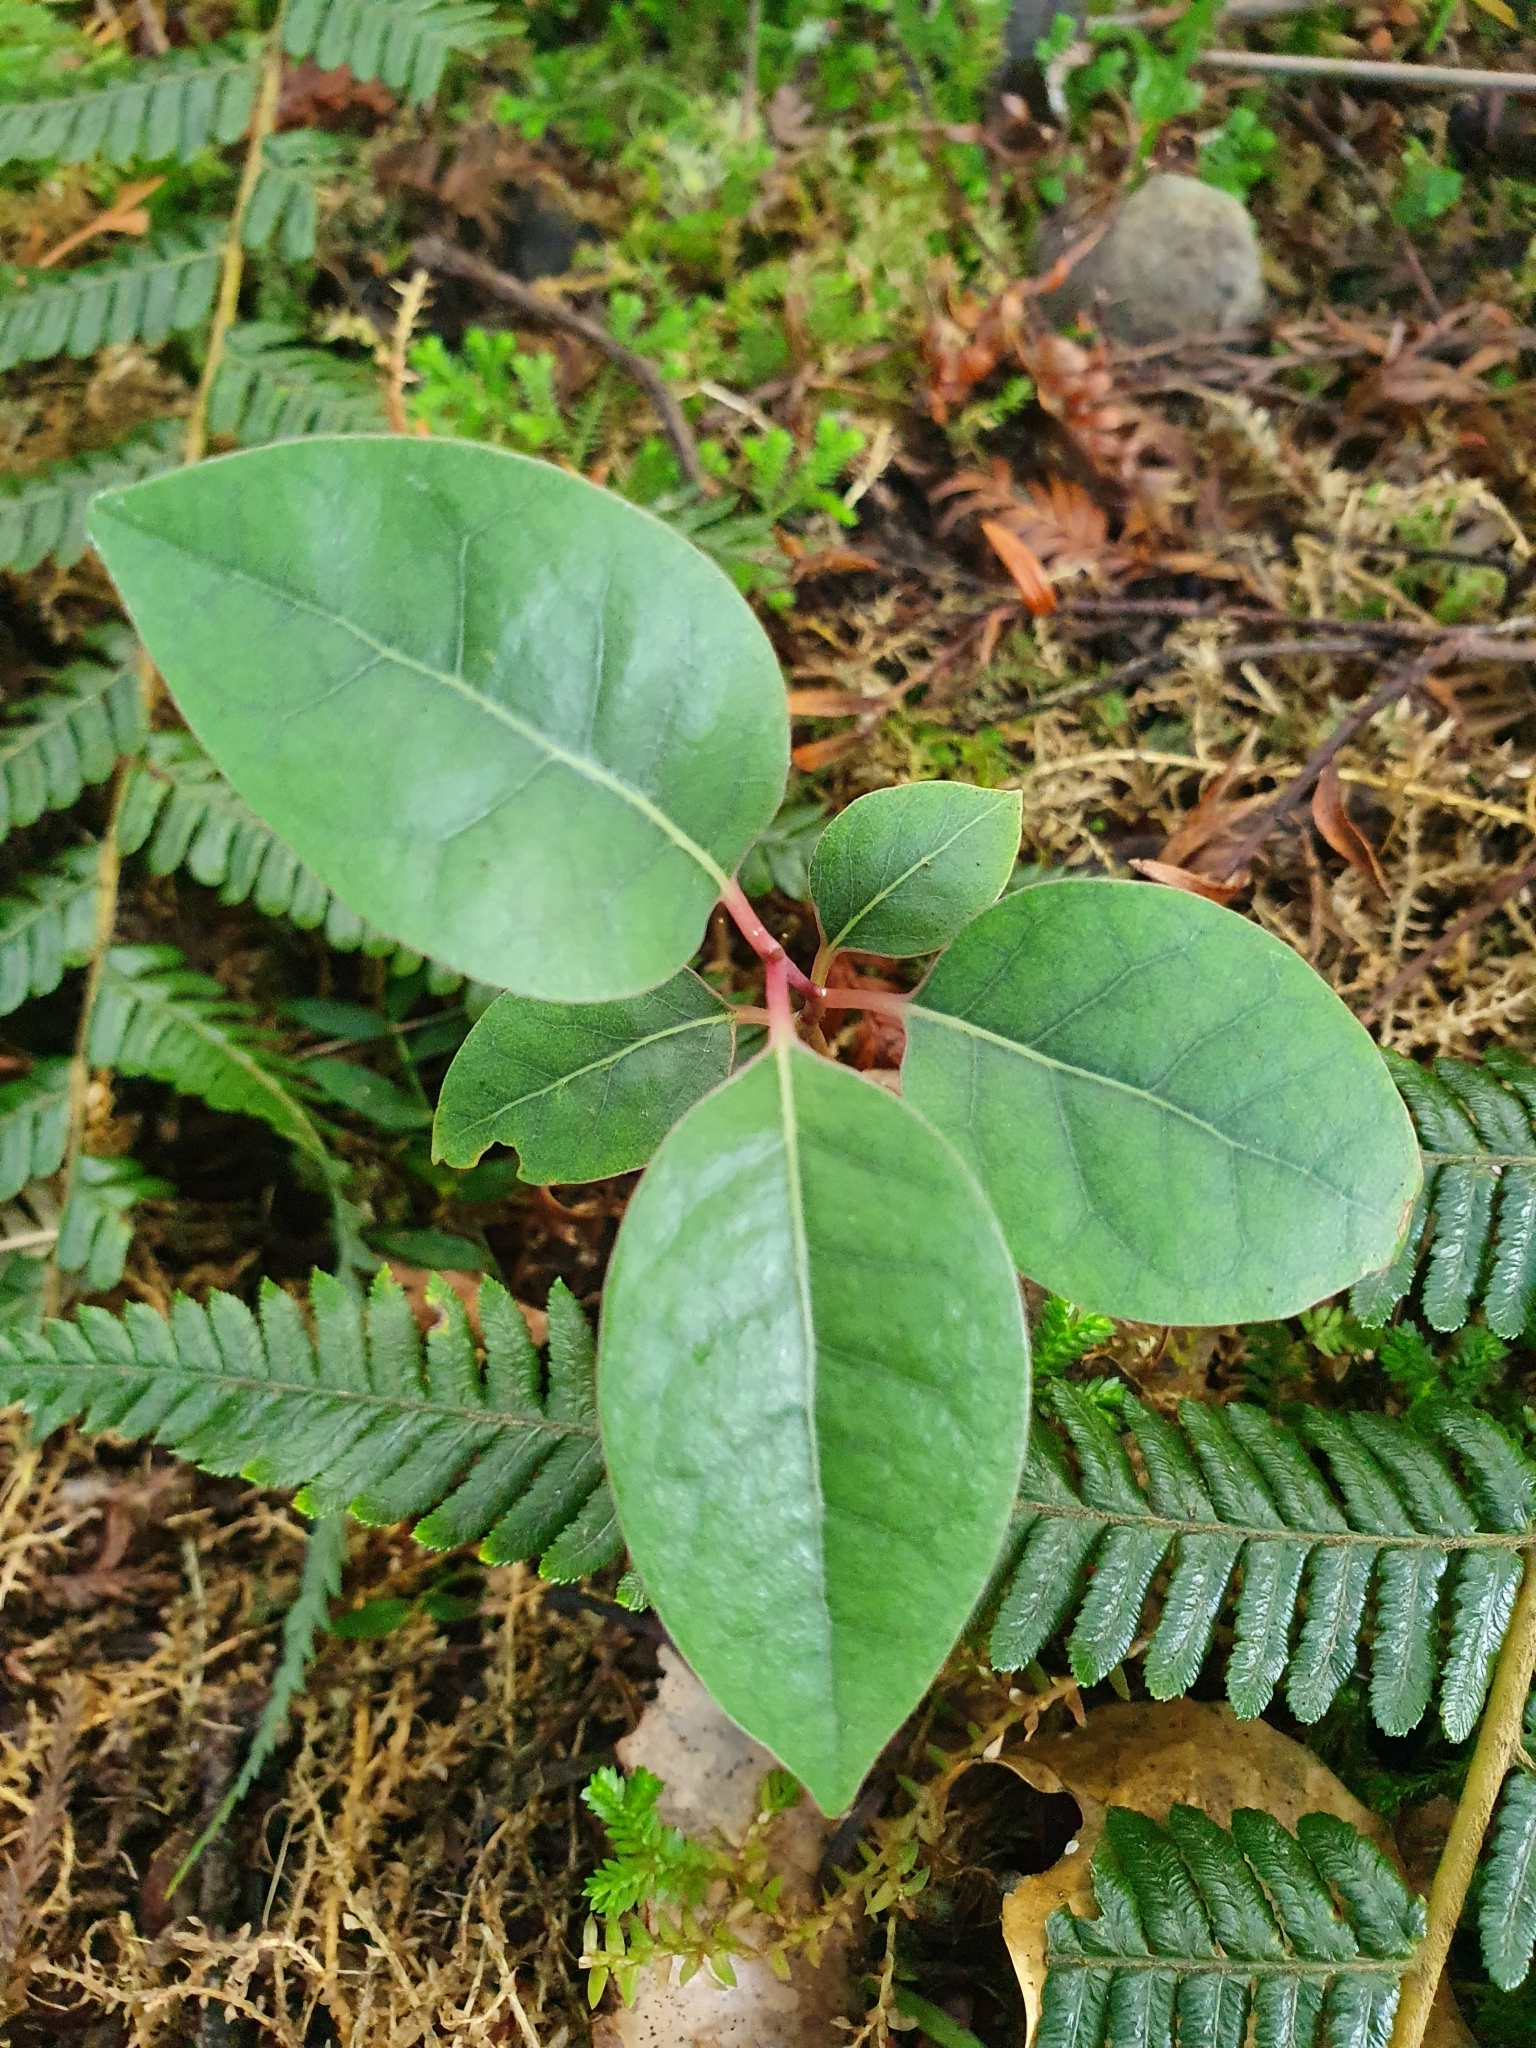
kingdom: Plantae
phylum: Tracheophyta
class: Magnoliopsida
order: Laurales
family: Lauraceae
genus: Litsea
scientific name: Litsea calicaris
